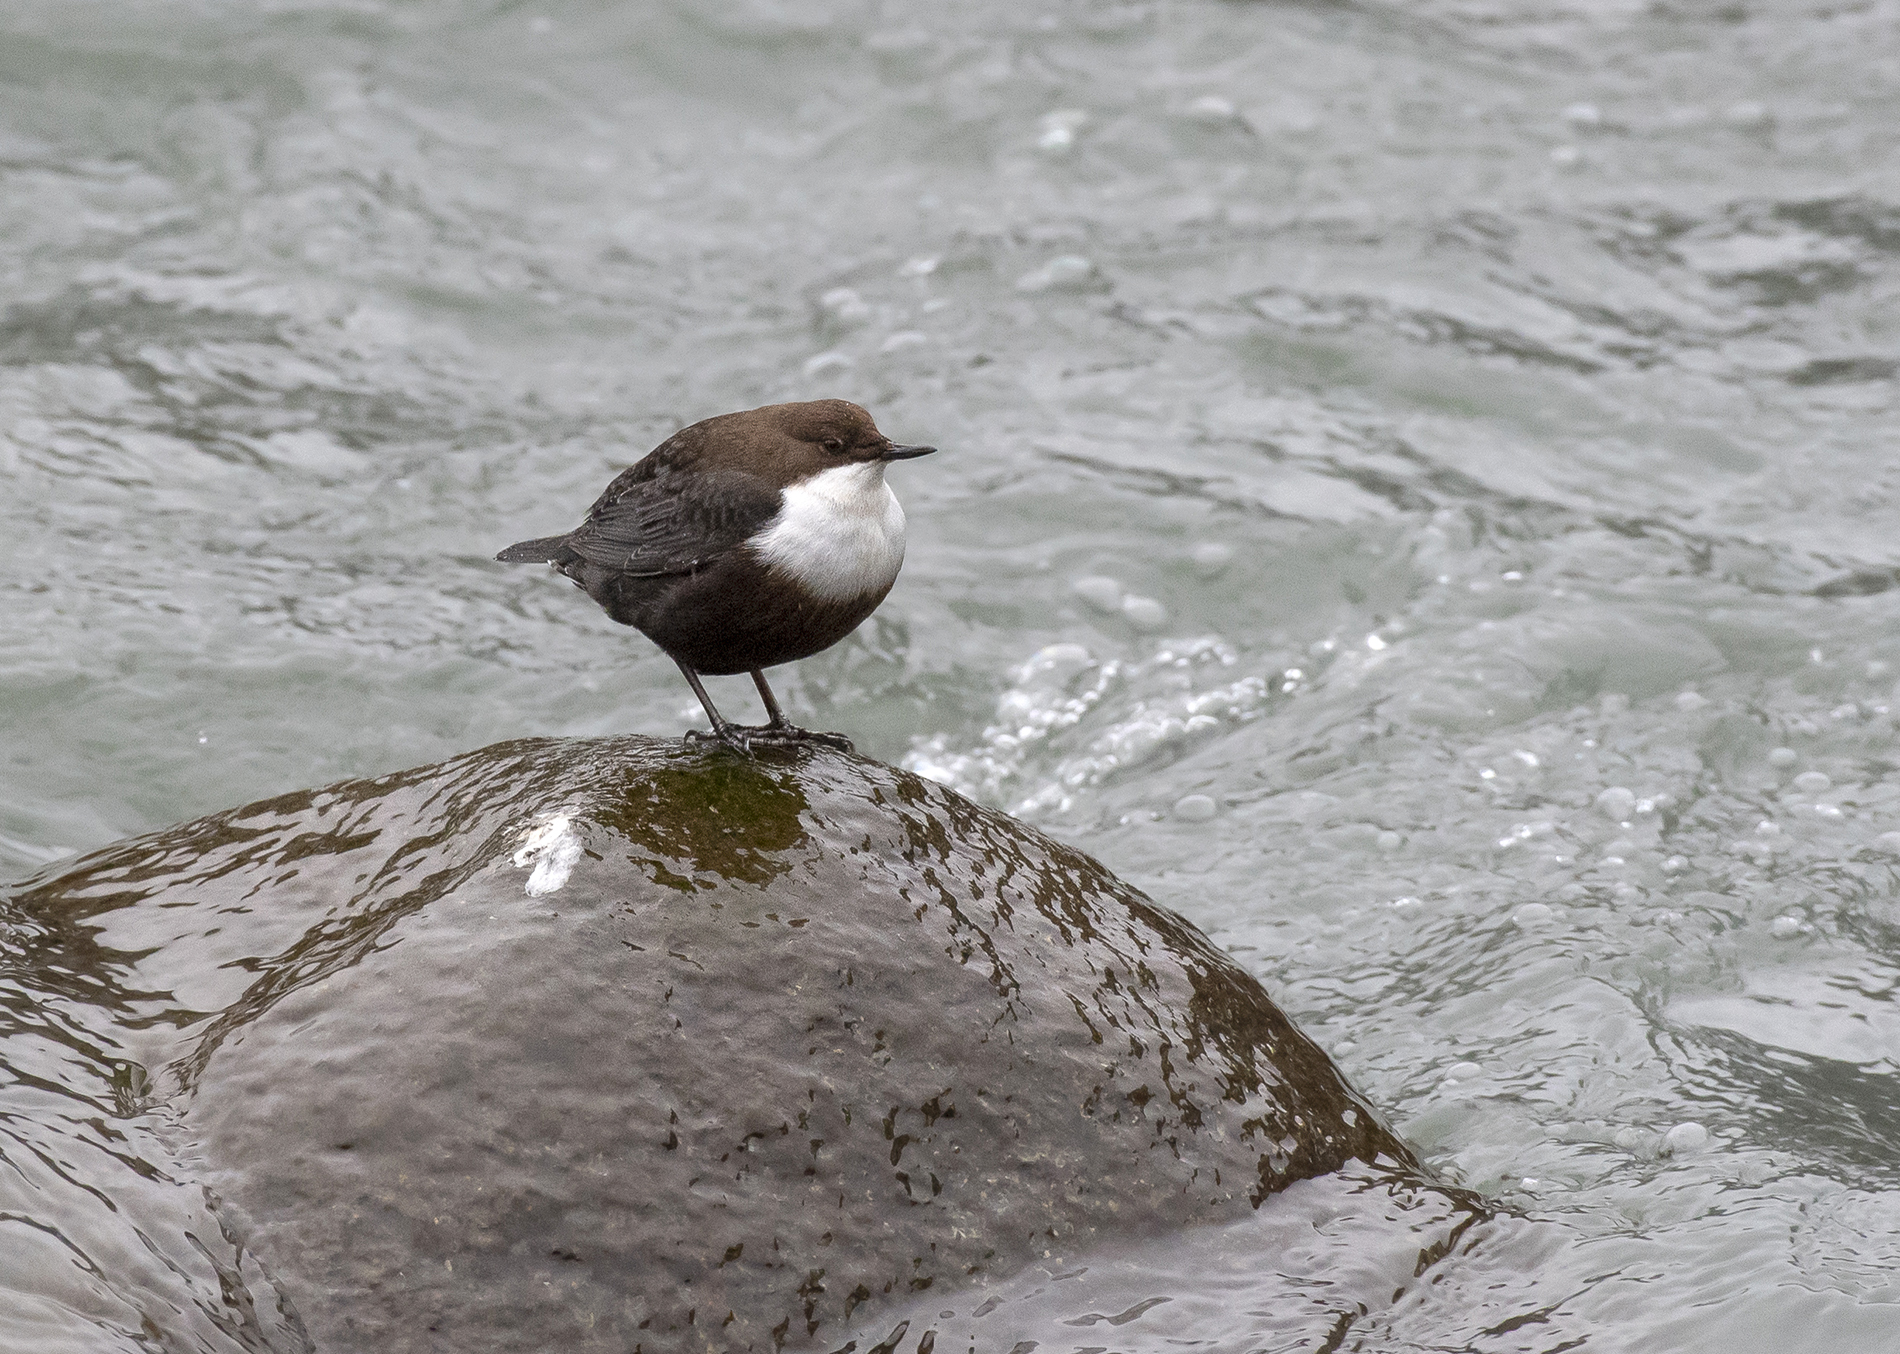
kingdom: Animalia
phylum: Chordata
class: Aves
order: Passeriformes
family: Cinclidae
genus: Cinclus
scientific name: Cinclus cinclus
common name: White-throated dipper
